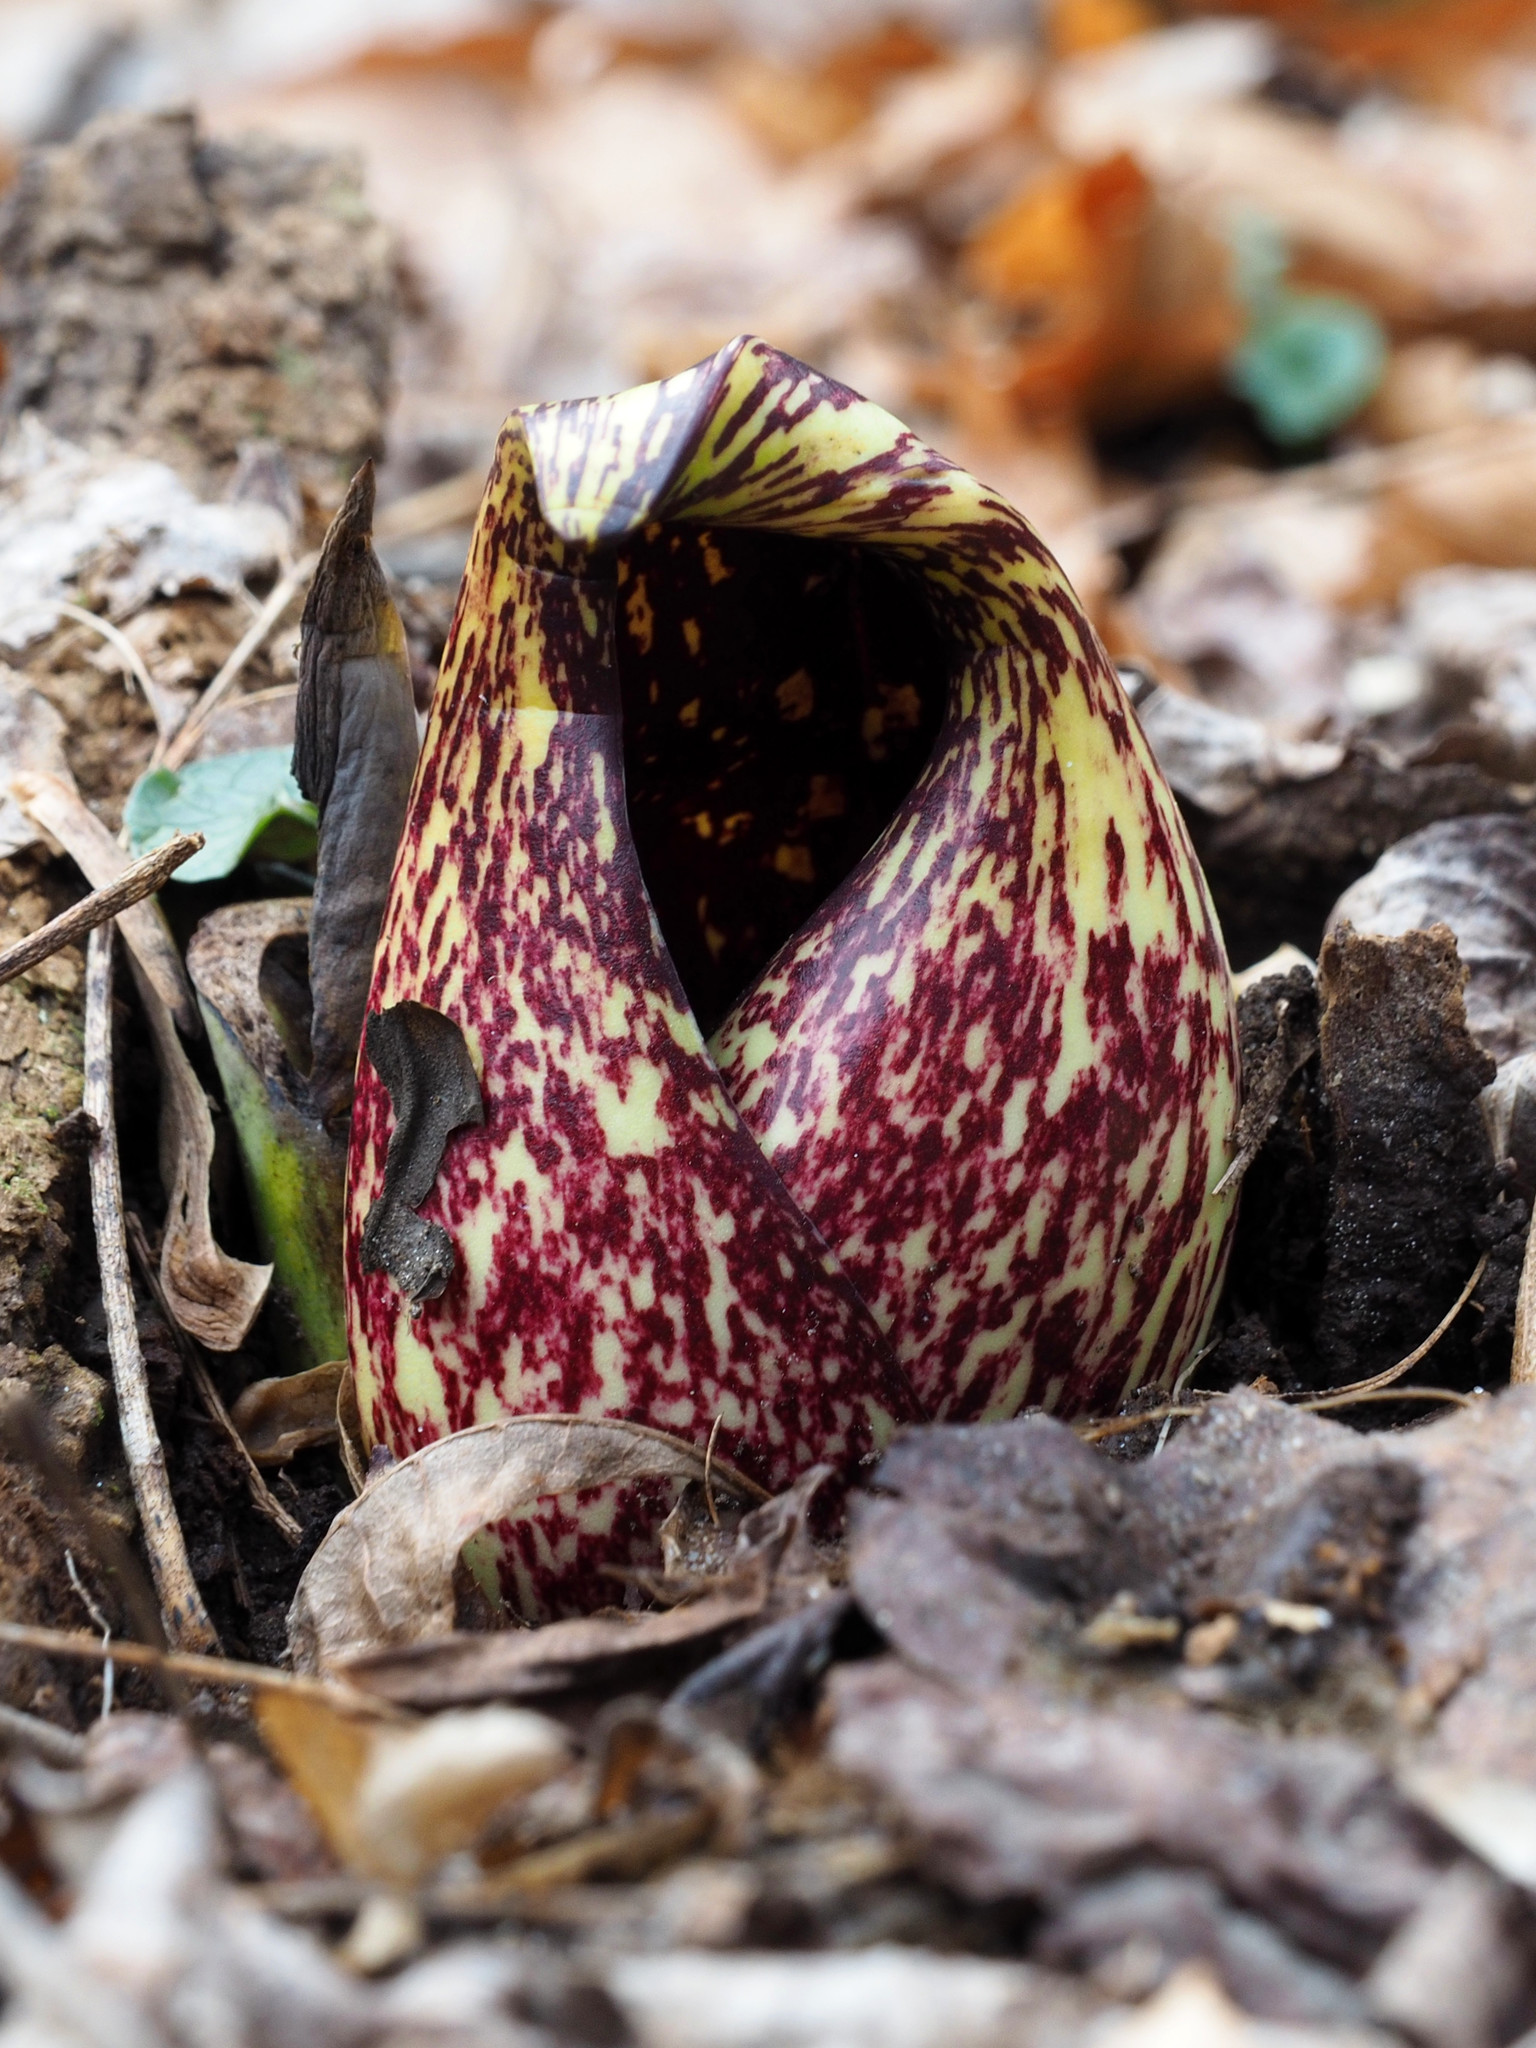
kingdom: Plantae
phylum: Tracheophyta
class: Liliopsida
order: Alismatales
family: Araceae
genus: Symplocarpus
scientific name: Symplocarpus foetidus
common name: Eastern skunk cabbage
